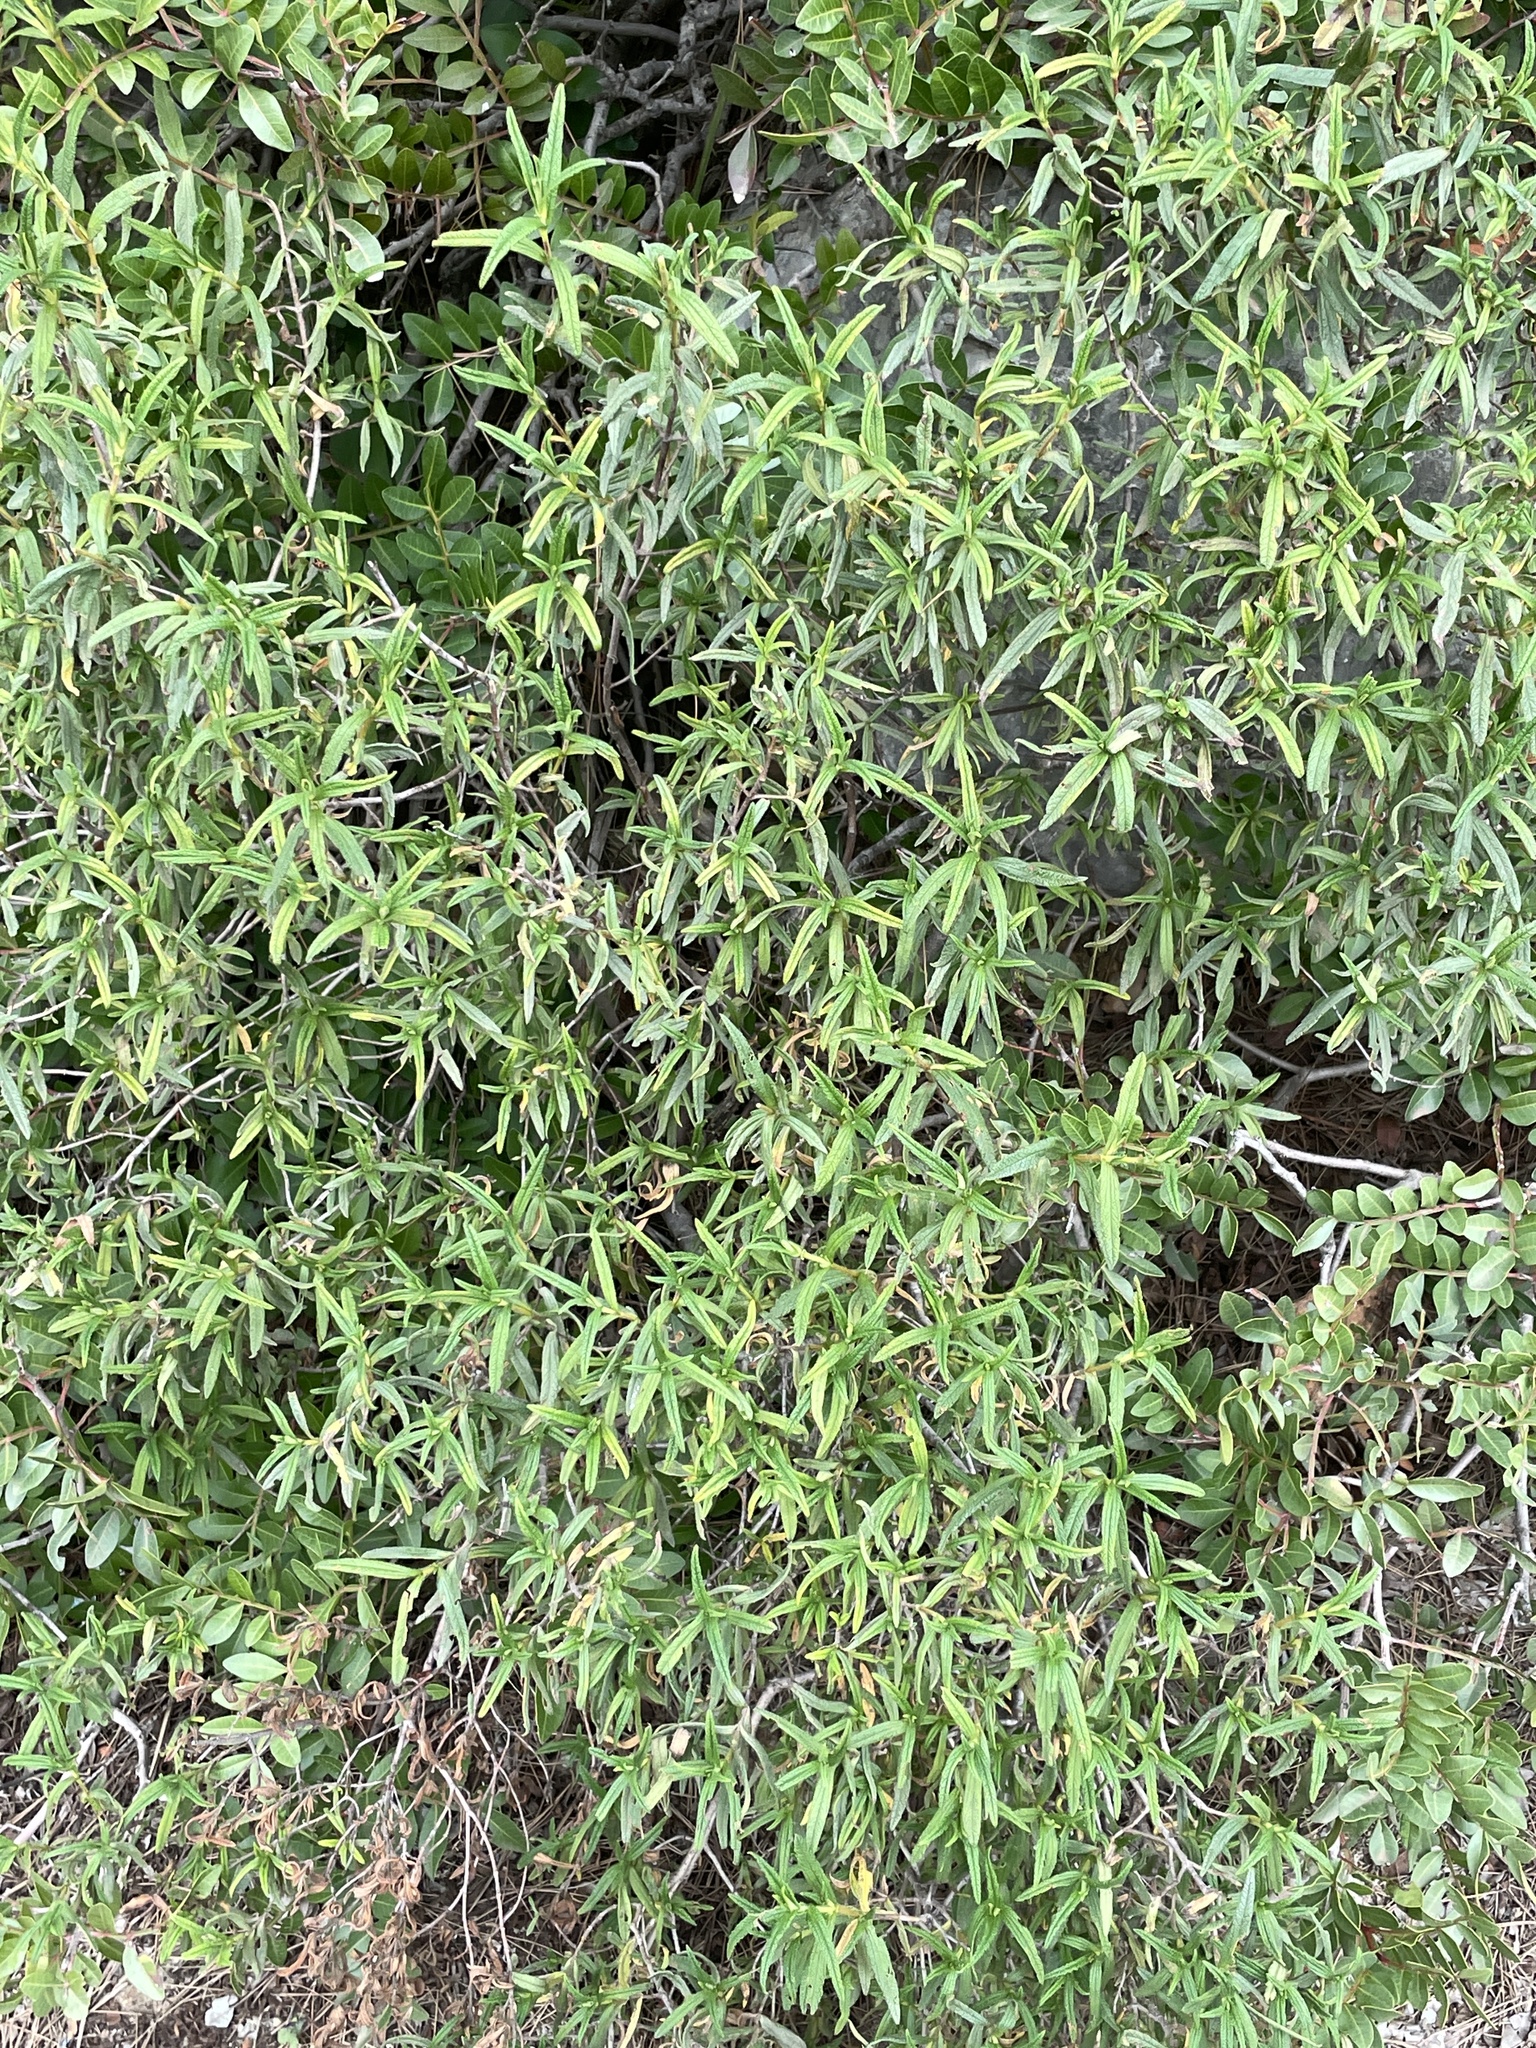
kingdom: Plantae
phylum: Tracheophyta
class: Magnoliopsida
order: Malvales
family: Cistaceae
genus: Cistus
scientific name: Cistus monspeliensis
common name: Montpelier cistus
